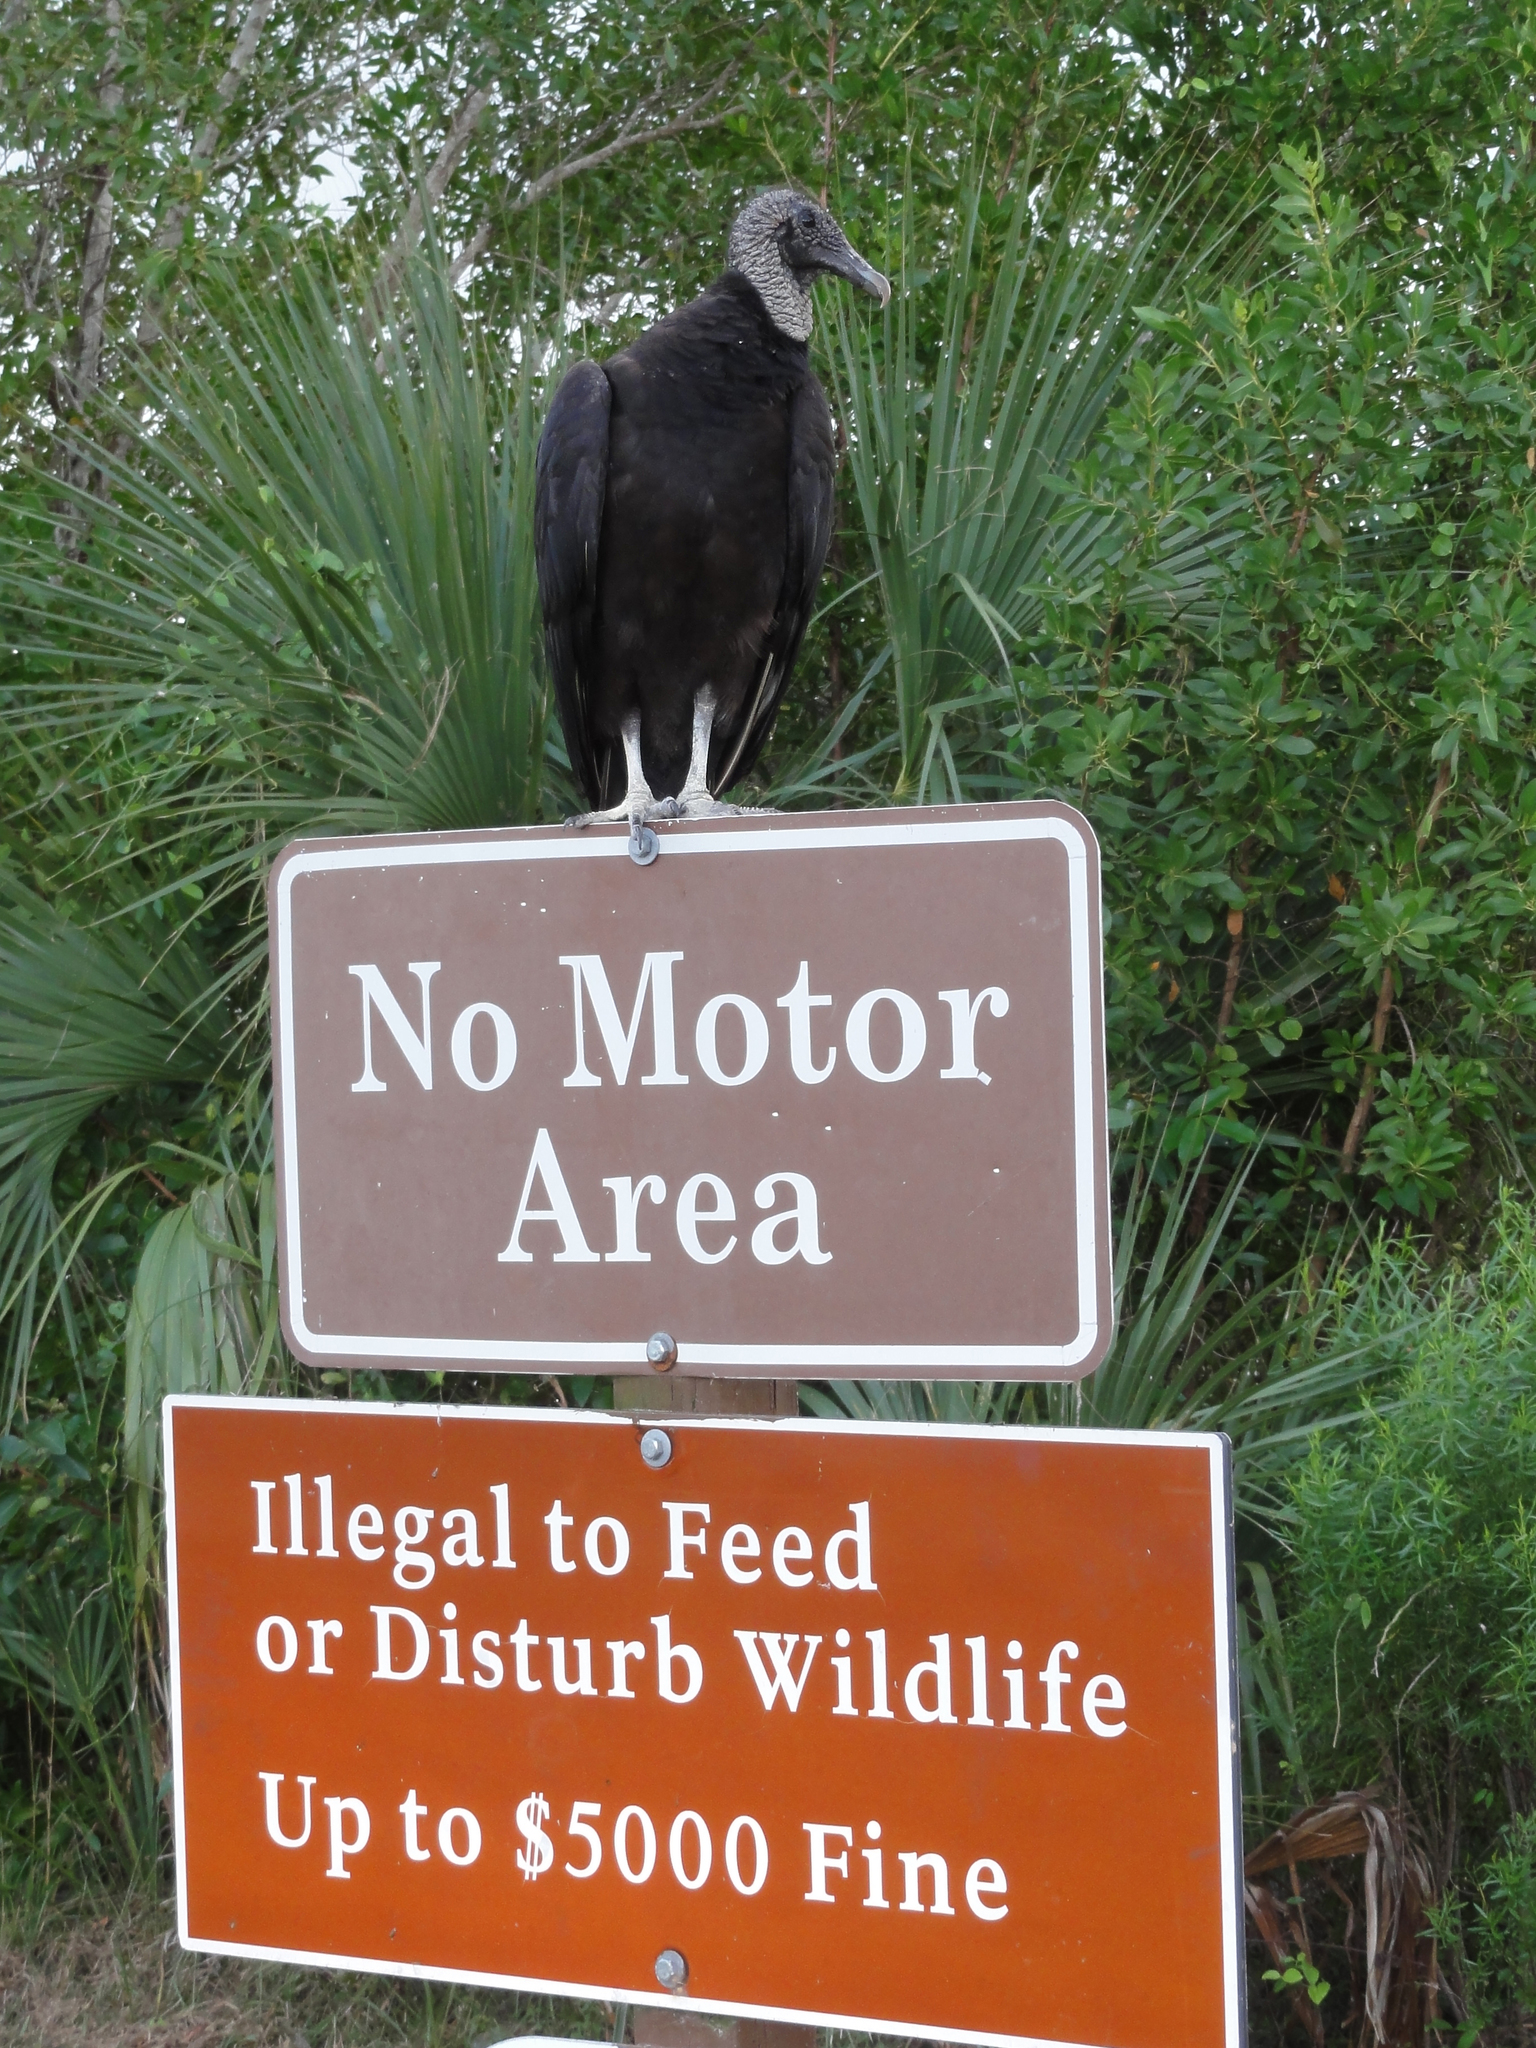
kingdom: Animalia
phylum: Chordata
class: Aves
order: Accipitriformes
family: Cathartidae
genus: Coragyps
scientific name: Coragyps atratus
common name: Black vulture
